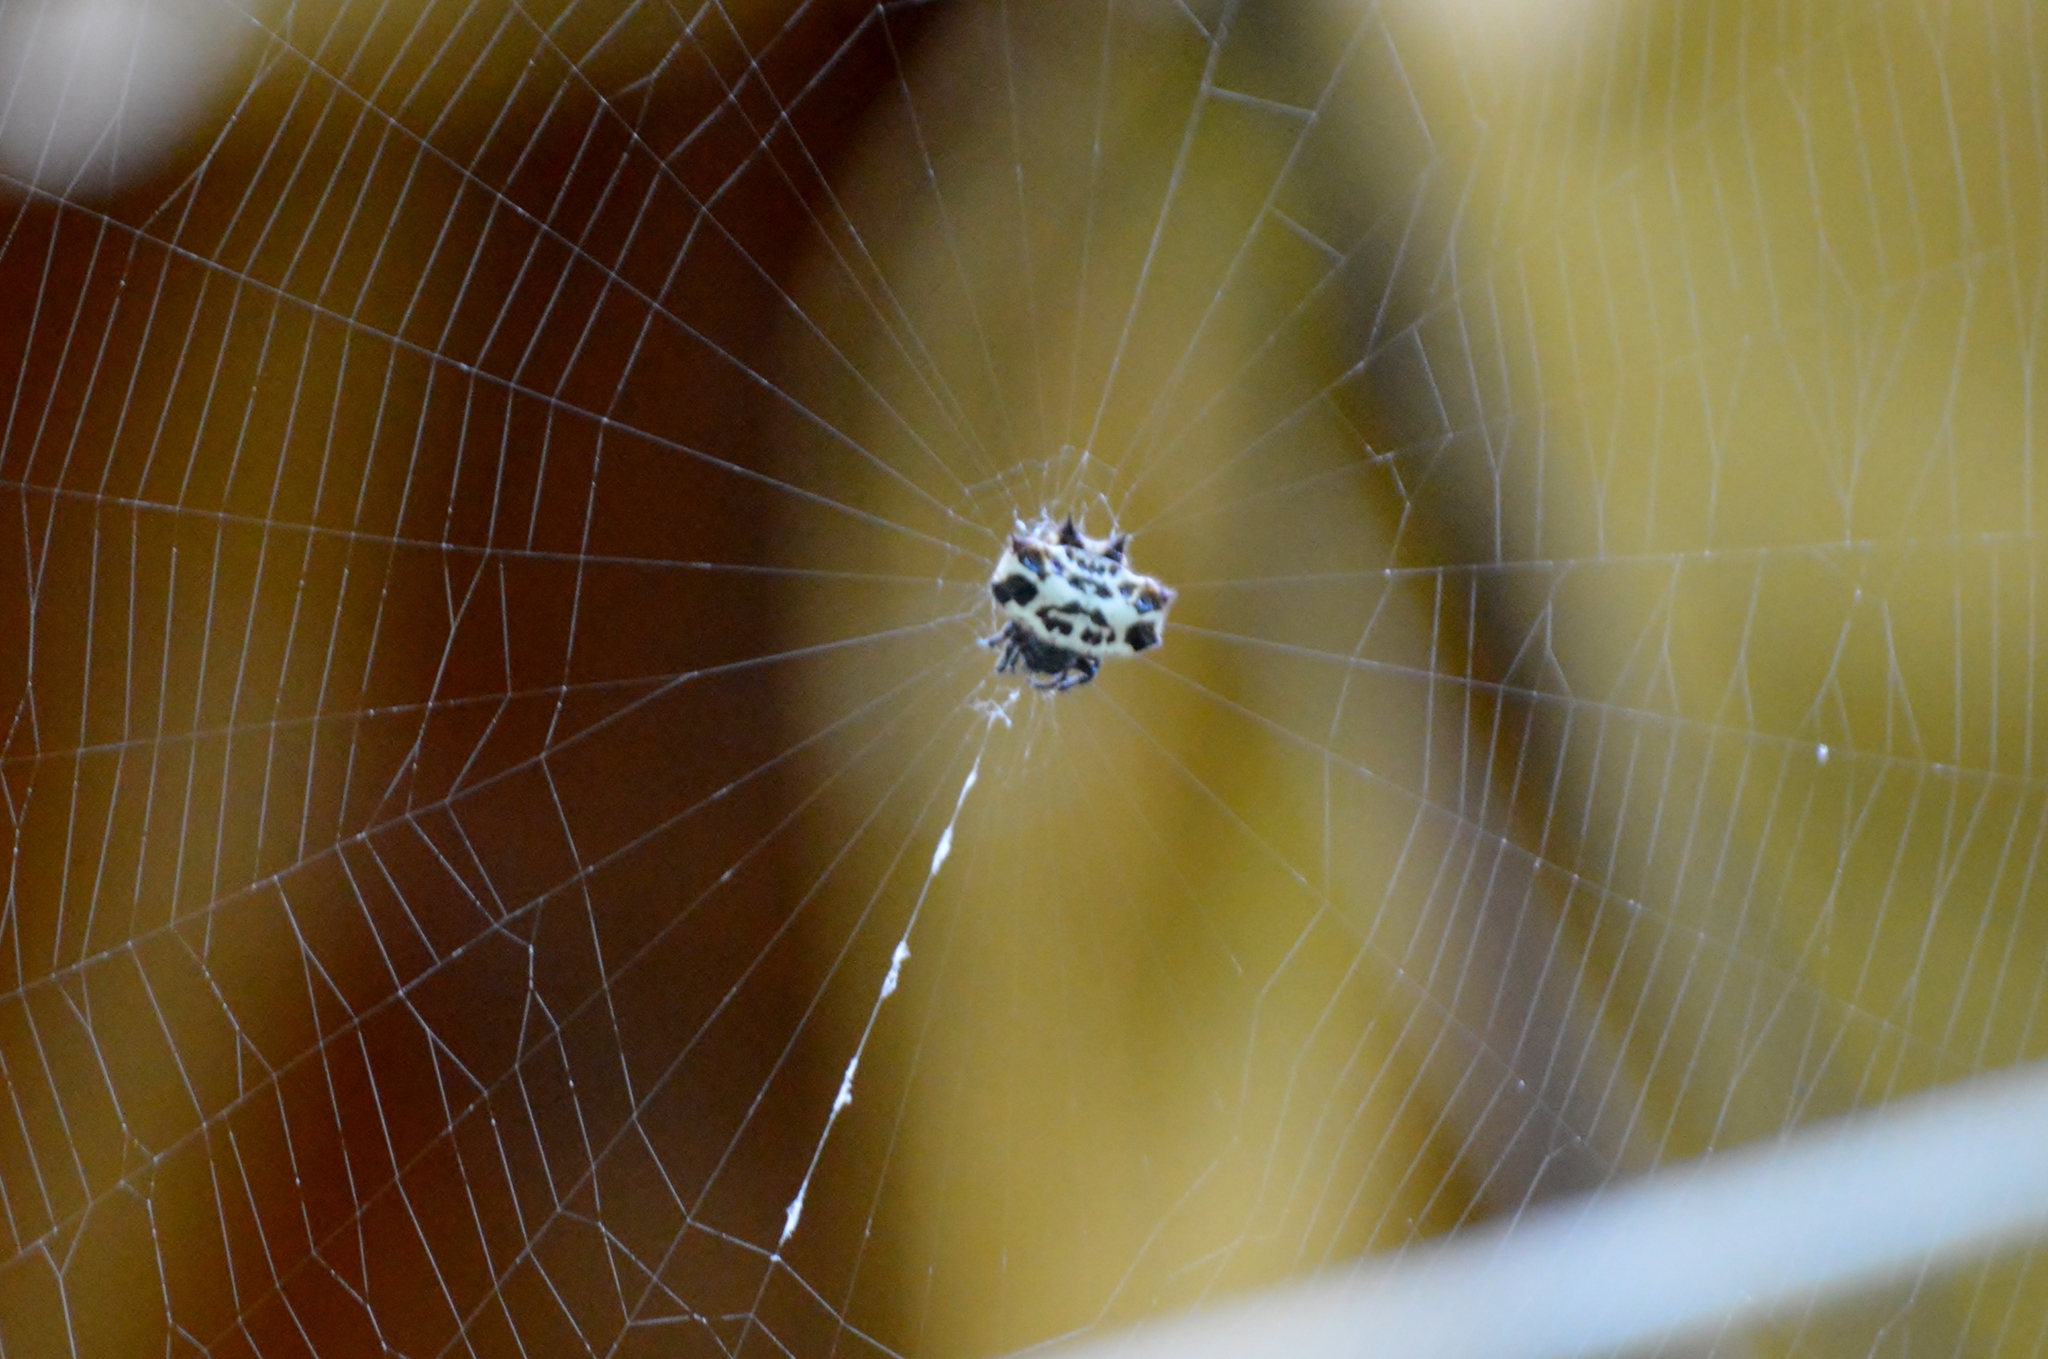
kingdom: Animalia
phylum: Arthropoda
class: Arachnida
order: Araneae
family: Araneidae
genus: Gasteracantha
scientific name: Gasteracantha cancriformis
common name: Orb weavers
